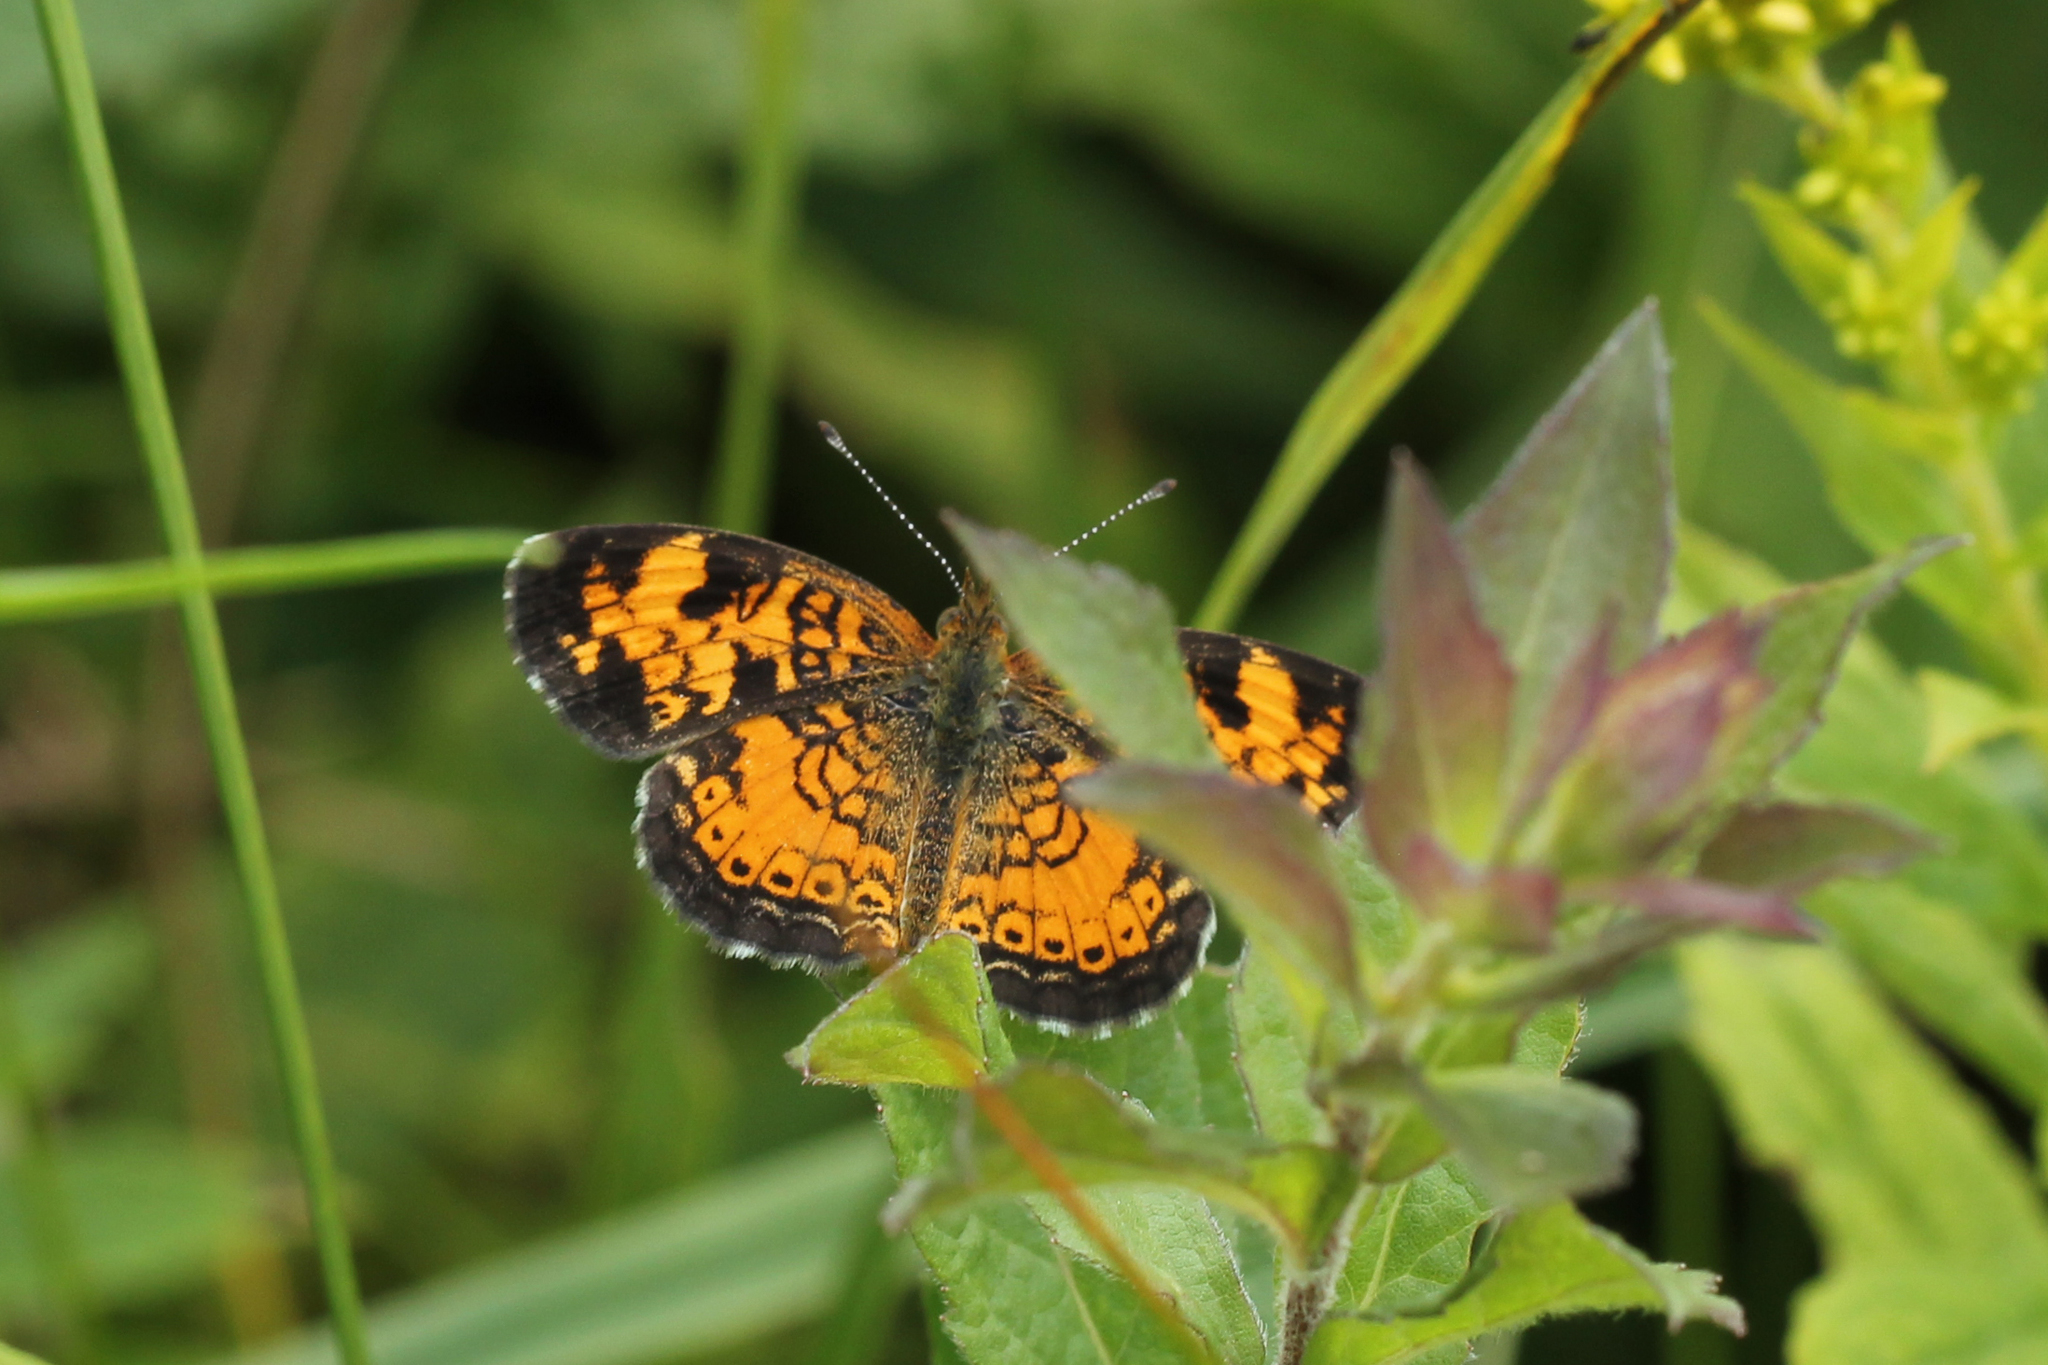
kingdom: Animalia
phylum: Arthropoda
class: Insecta
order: Lepidoptera
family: Nymphalidae
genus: Phyciodes
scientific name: Phyciodes tharos
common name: Pearl crescent
